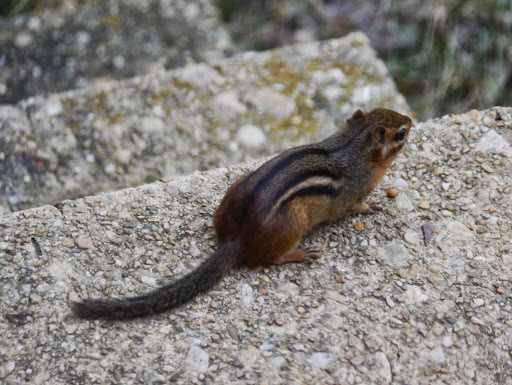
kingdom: Animalia
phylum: Chordata
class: Mammalia
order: Rodentia
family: Sciuridae
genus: Tamias
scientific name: Tamias striatus
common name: Eastern chipmunk
